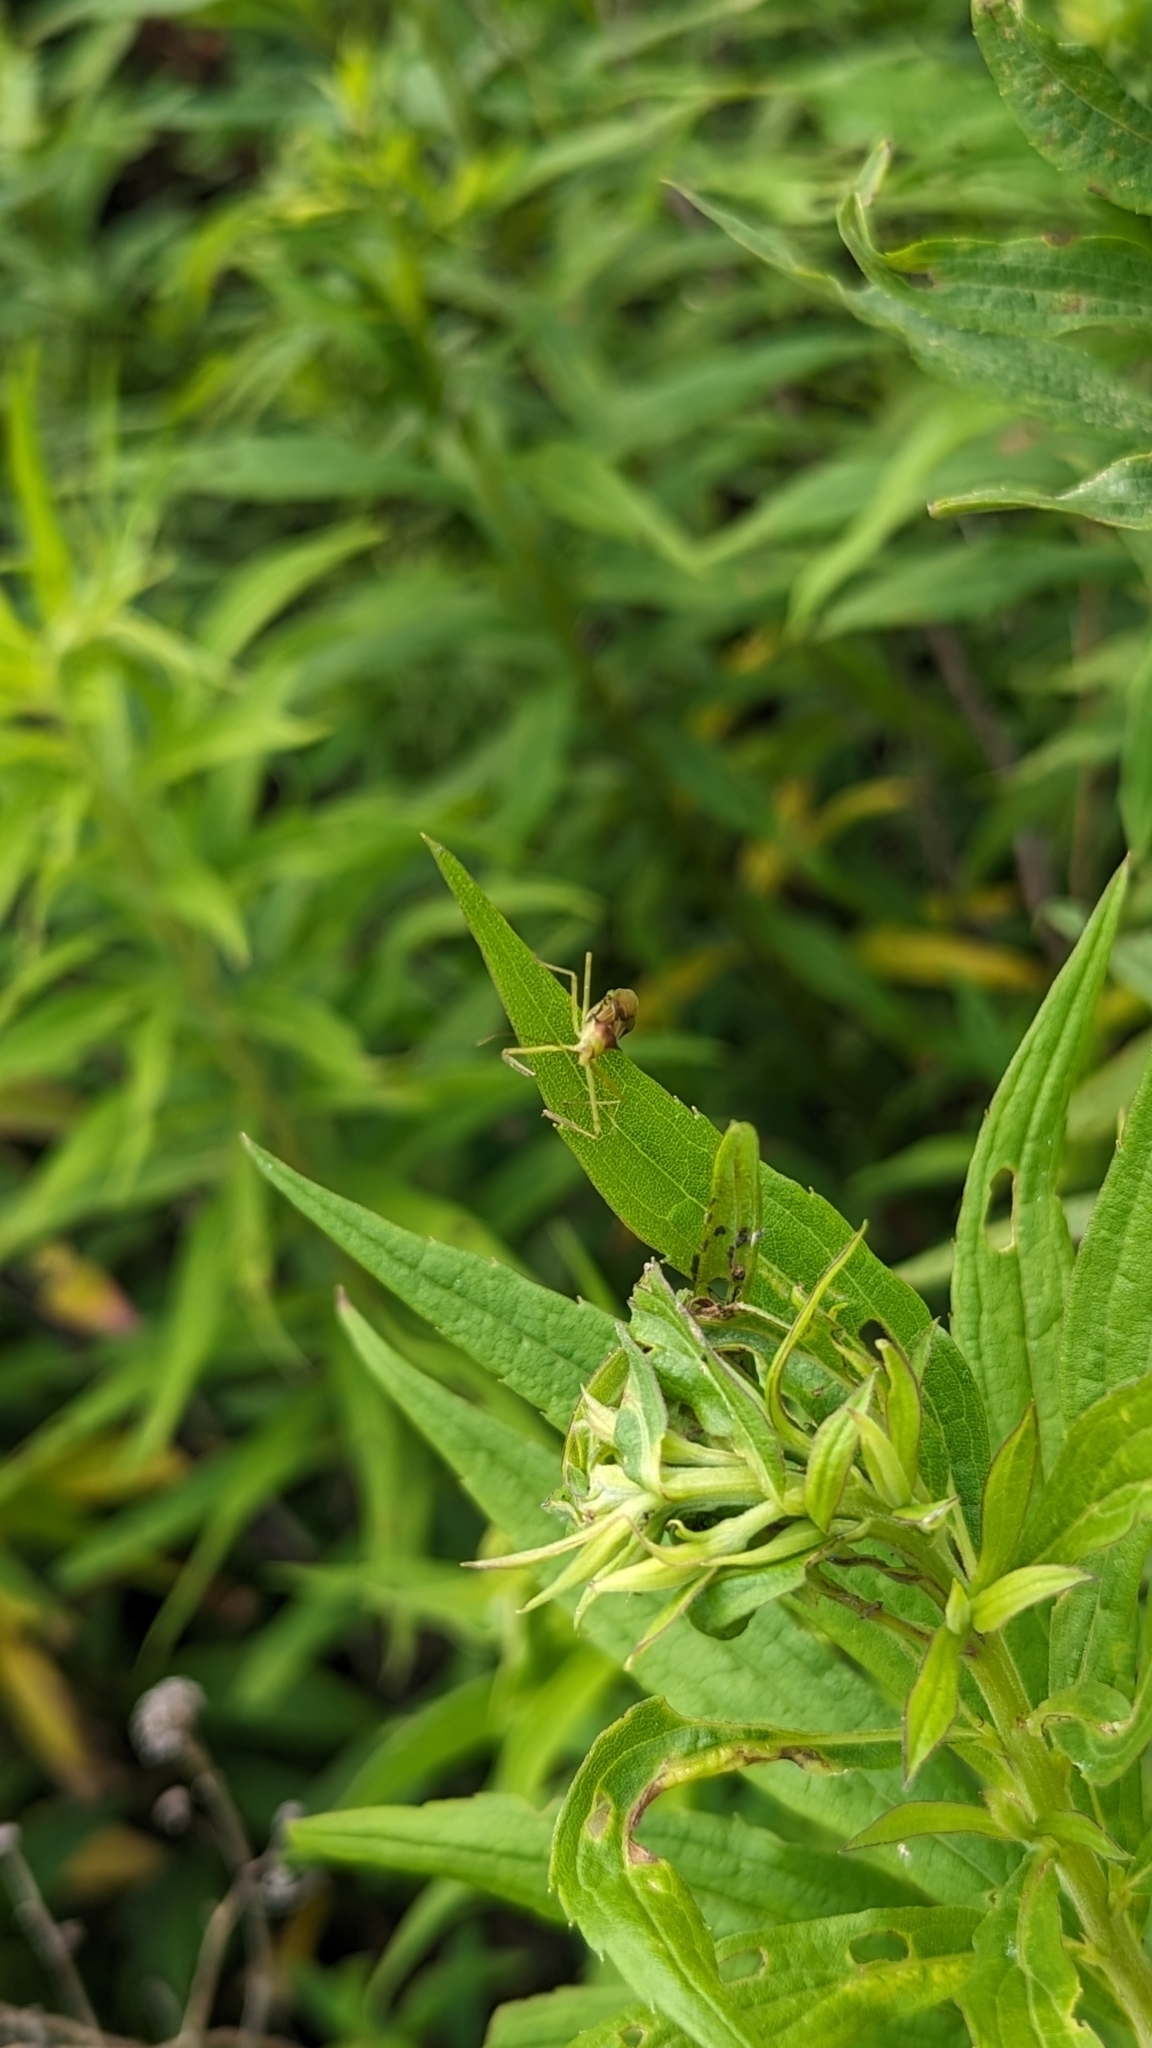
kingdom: Animalia
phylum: Arthropoda
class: Insecta
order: Hemiptera
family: Reduviidae
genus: Zelus
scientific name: Zelus luridus
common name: Pale green assassin bug
